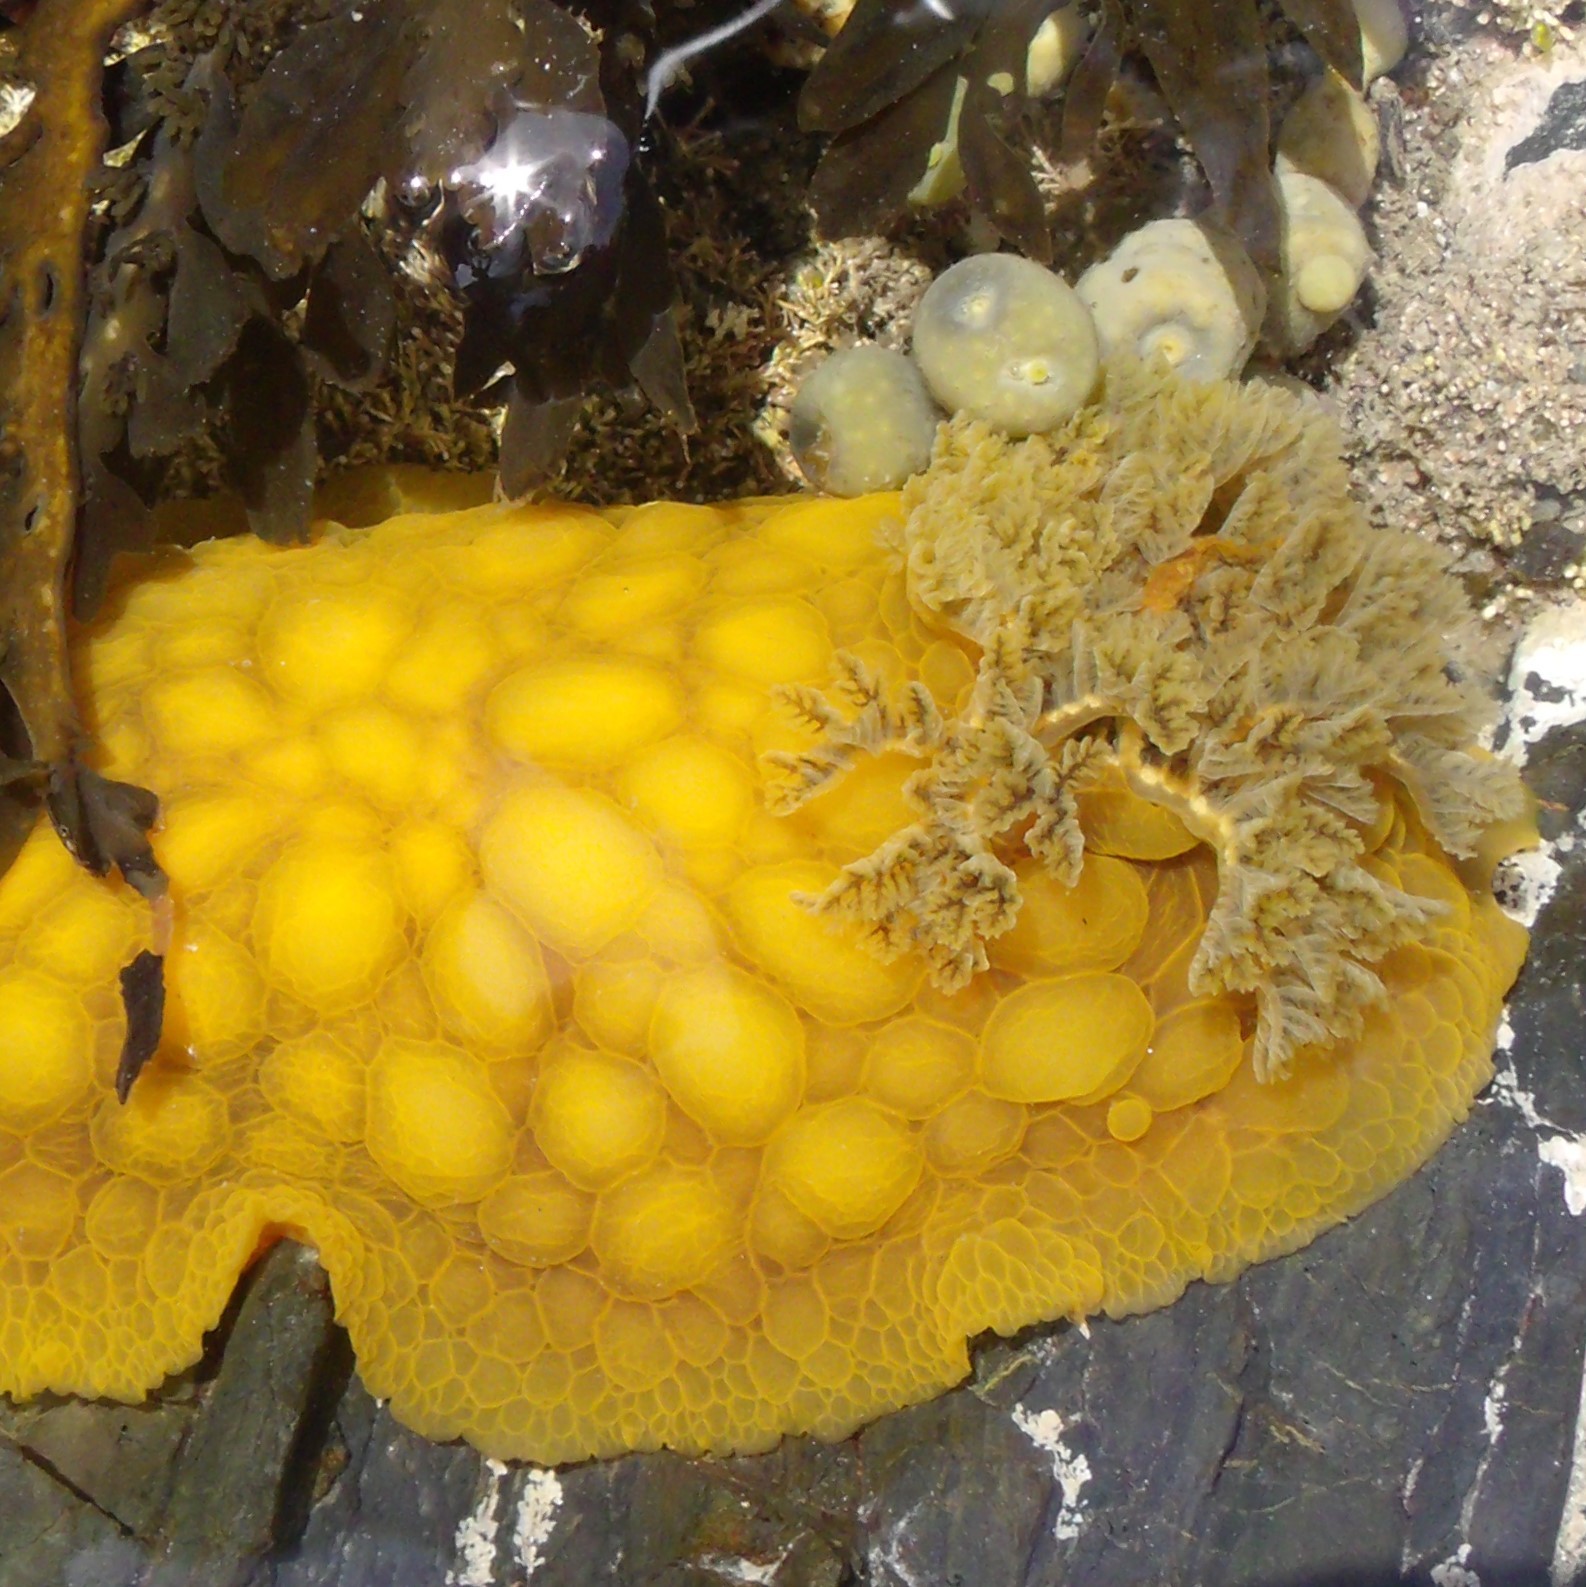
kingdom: Animalia
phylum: Mollusca
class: Gastropoda
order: Nudibranchia
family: Dorididae
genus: Doris
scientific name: Doris wellingtonensis
